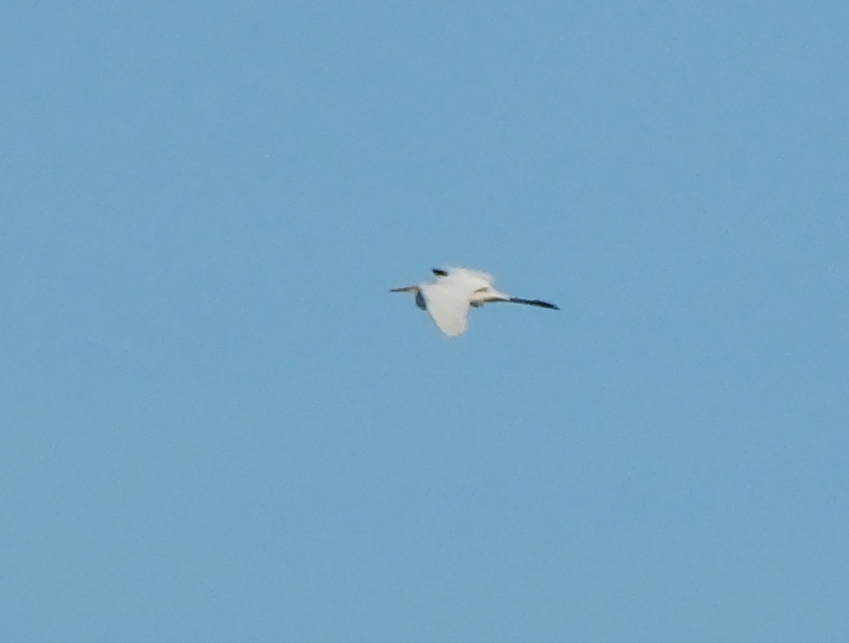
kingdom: Animalia
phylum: Chordata
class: Aves
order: Pelecaniformes
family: Ardeidae
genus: Ardea
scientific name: Ardea alba
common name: Great egret
